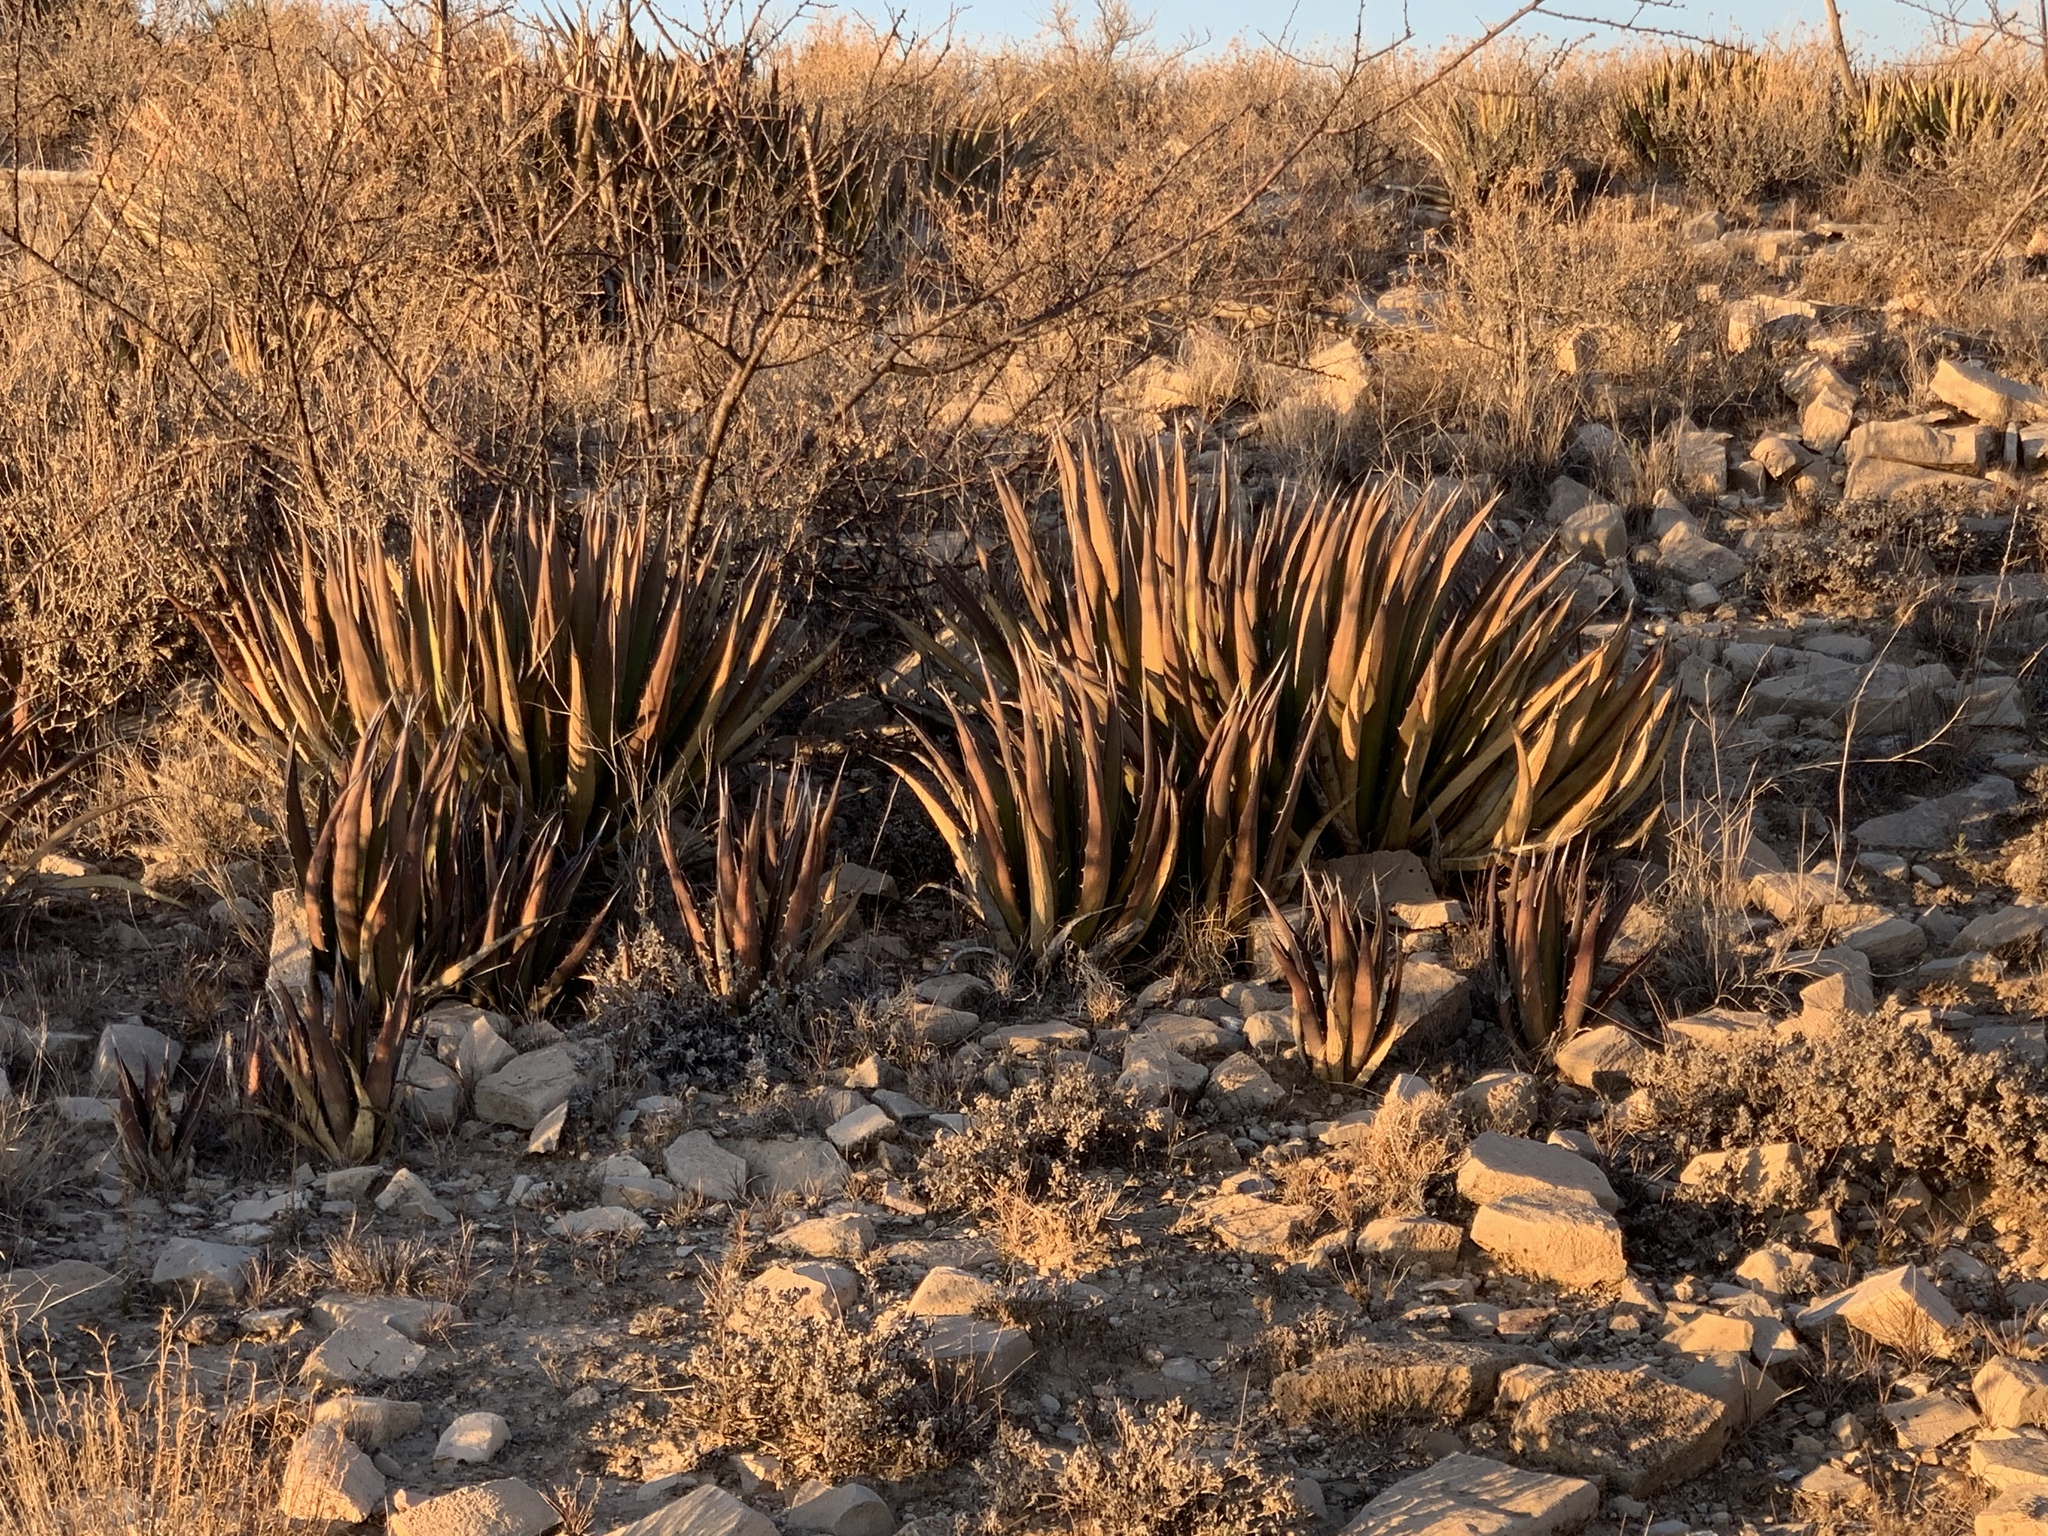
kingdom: Plantae
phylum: Tracheophyta
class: Liliopsida
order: Asparagales
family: Asparagaceae
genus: Agave
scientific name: Agave lechuguilla
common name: Lecheguilla agave
